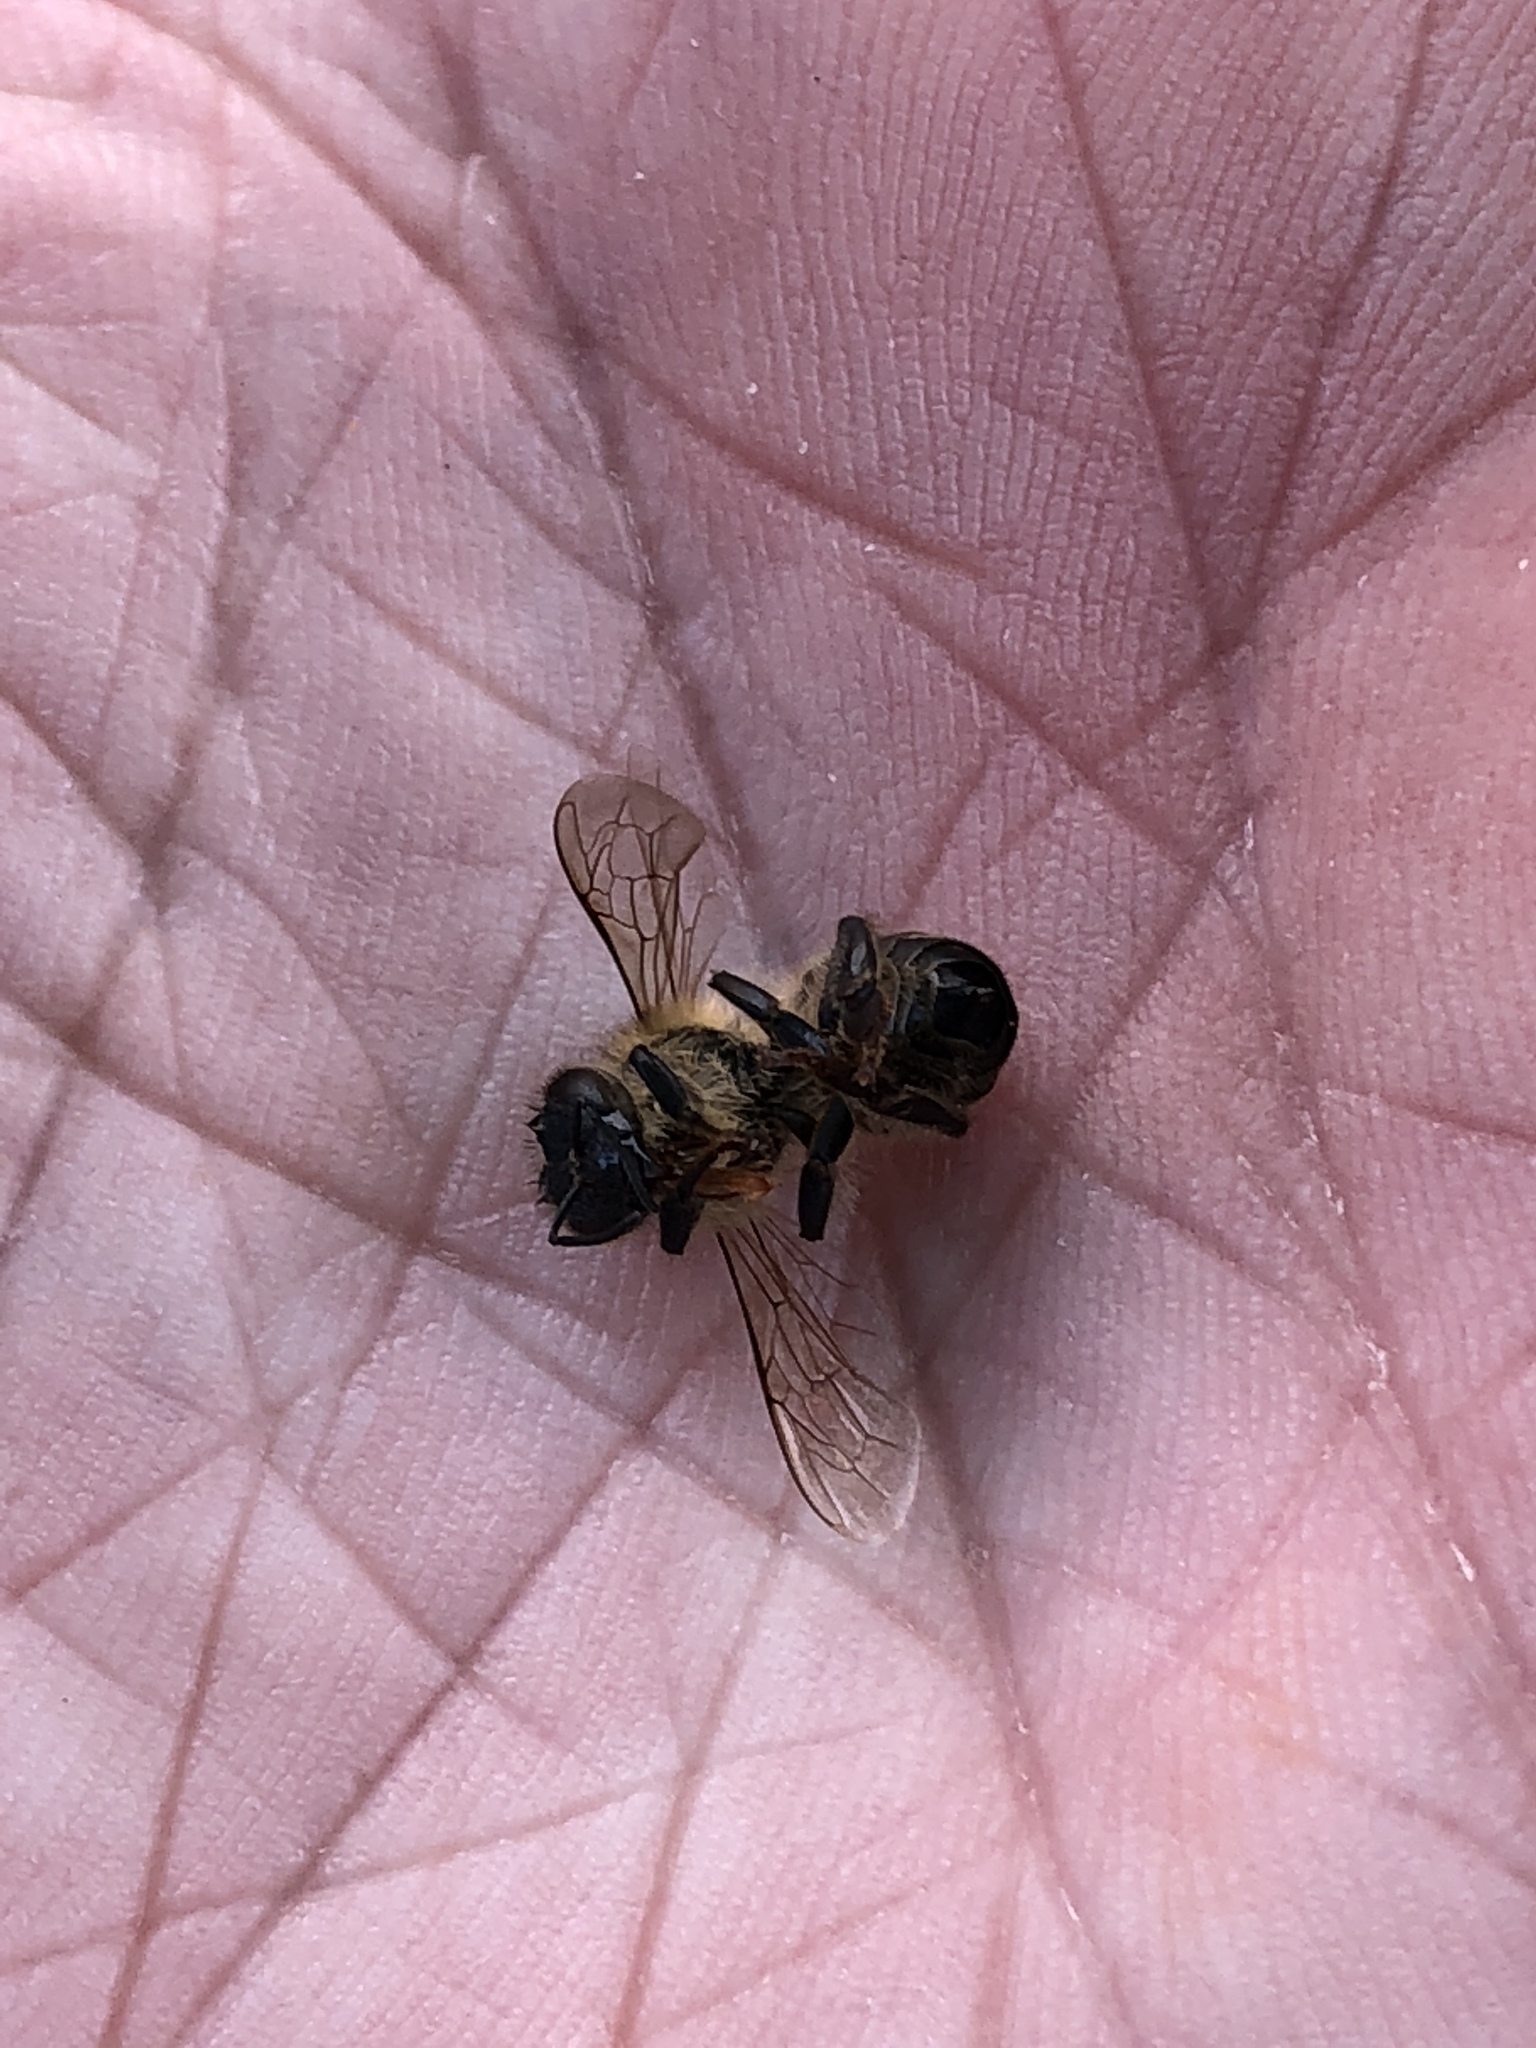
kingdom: Animalia
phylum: Arthropoda
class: Insecta
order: Hymenoptera
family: Apidae
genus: Apis
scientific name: Apis mellifera
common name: Honey bee
